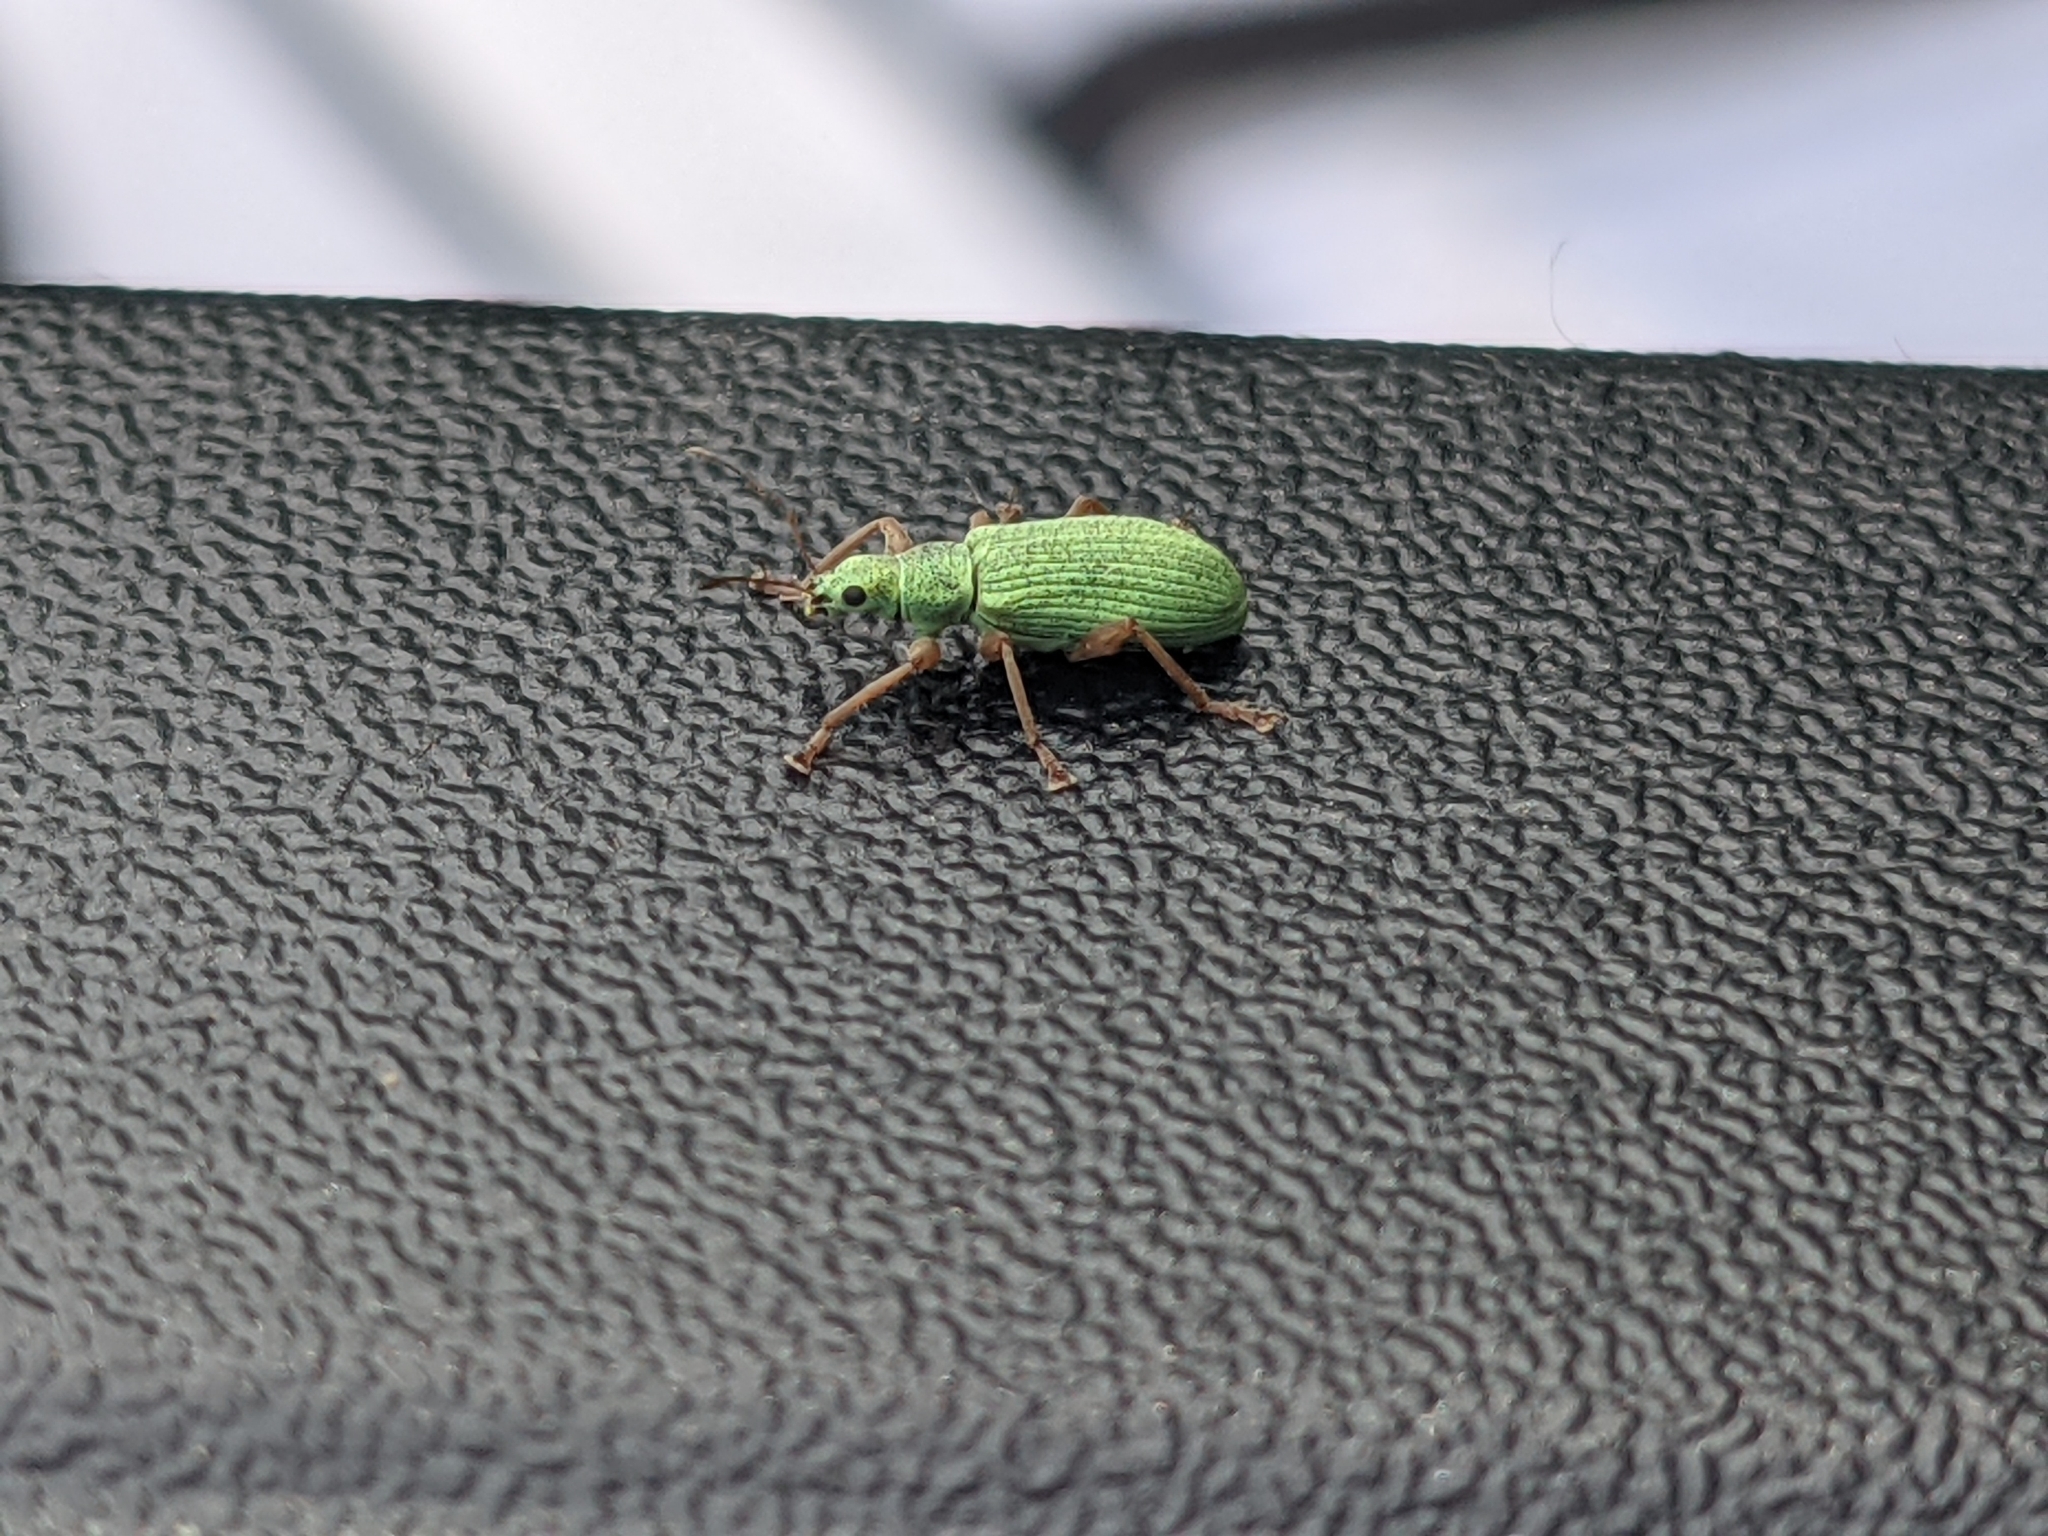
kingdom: Animalia
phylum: Arthropoda
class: Insecta
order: Coleoptera
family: Curculionidae
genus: Polydrusus
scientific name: Polydrusus impressifrons
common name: Weevil
